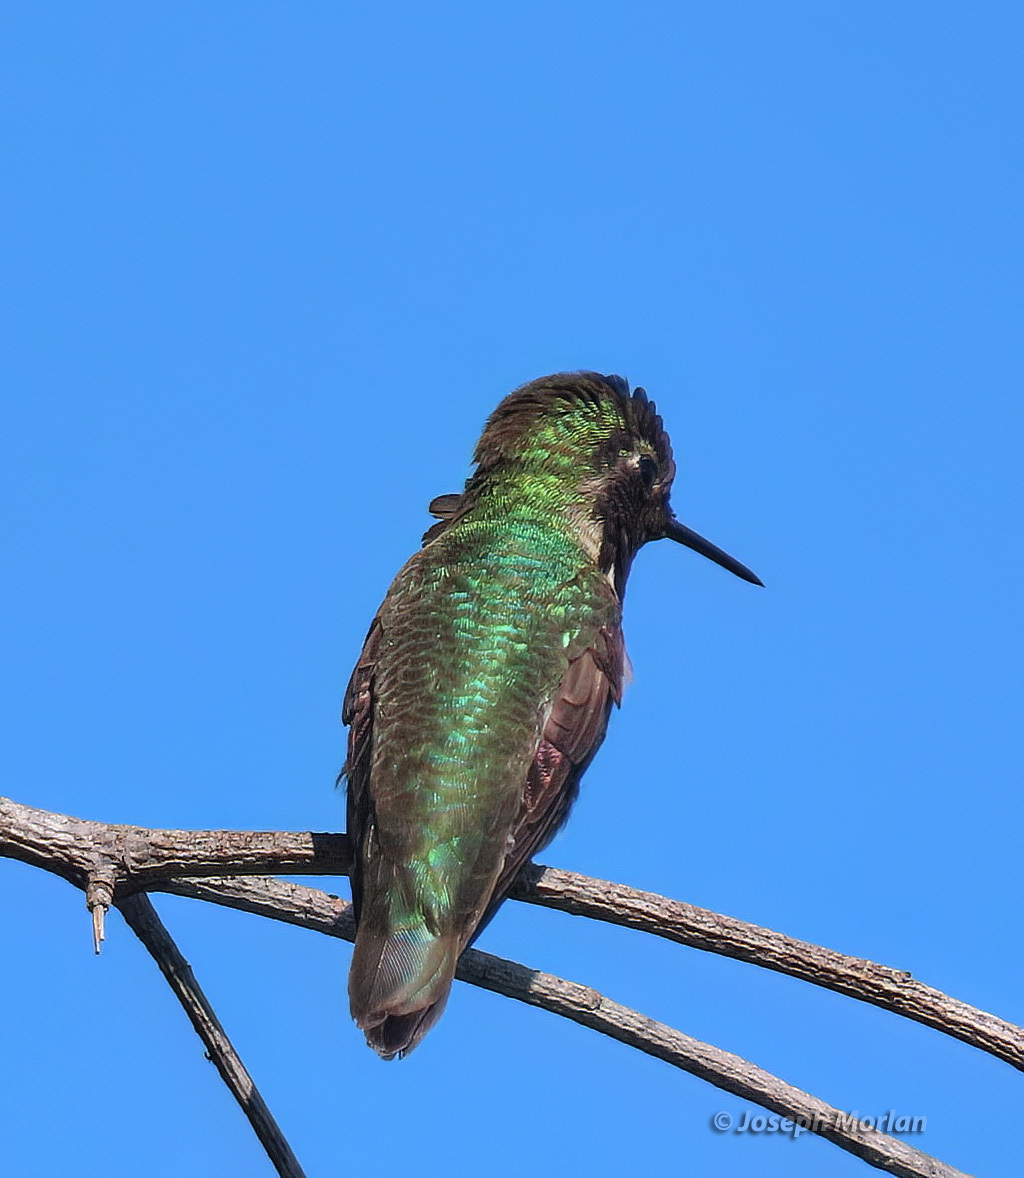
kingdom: Animalia
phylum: Chordata
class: Aves
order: Apodiformes
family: Trochilidae
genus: Calypte
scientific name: Calypte anna
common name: Anna's hummingbird
